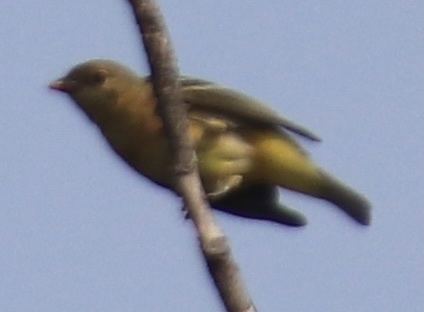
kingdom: Animalia
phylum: Chordata
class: Aves
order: Passeriformes
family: Cardinalidae
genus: Piranga
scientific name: Piranga ludoviciana
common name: Western tanager
